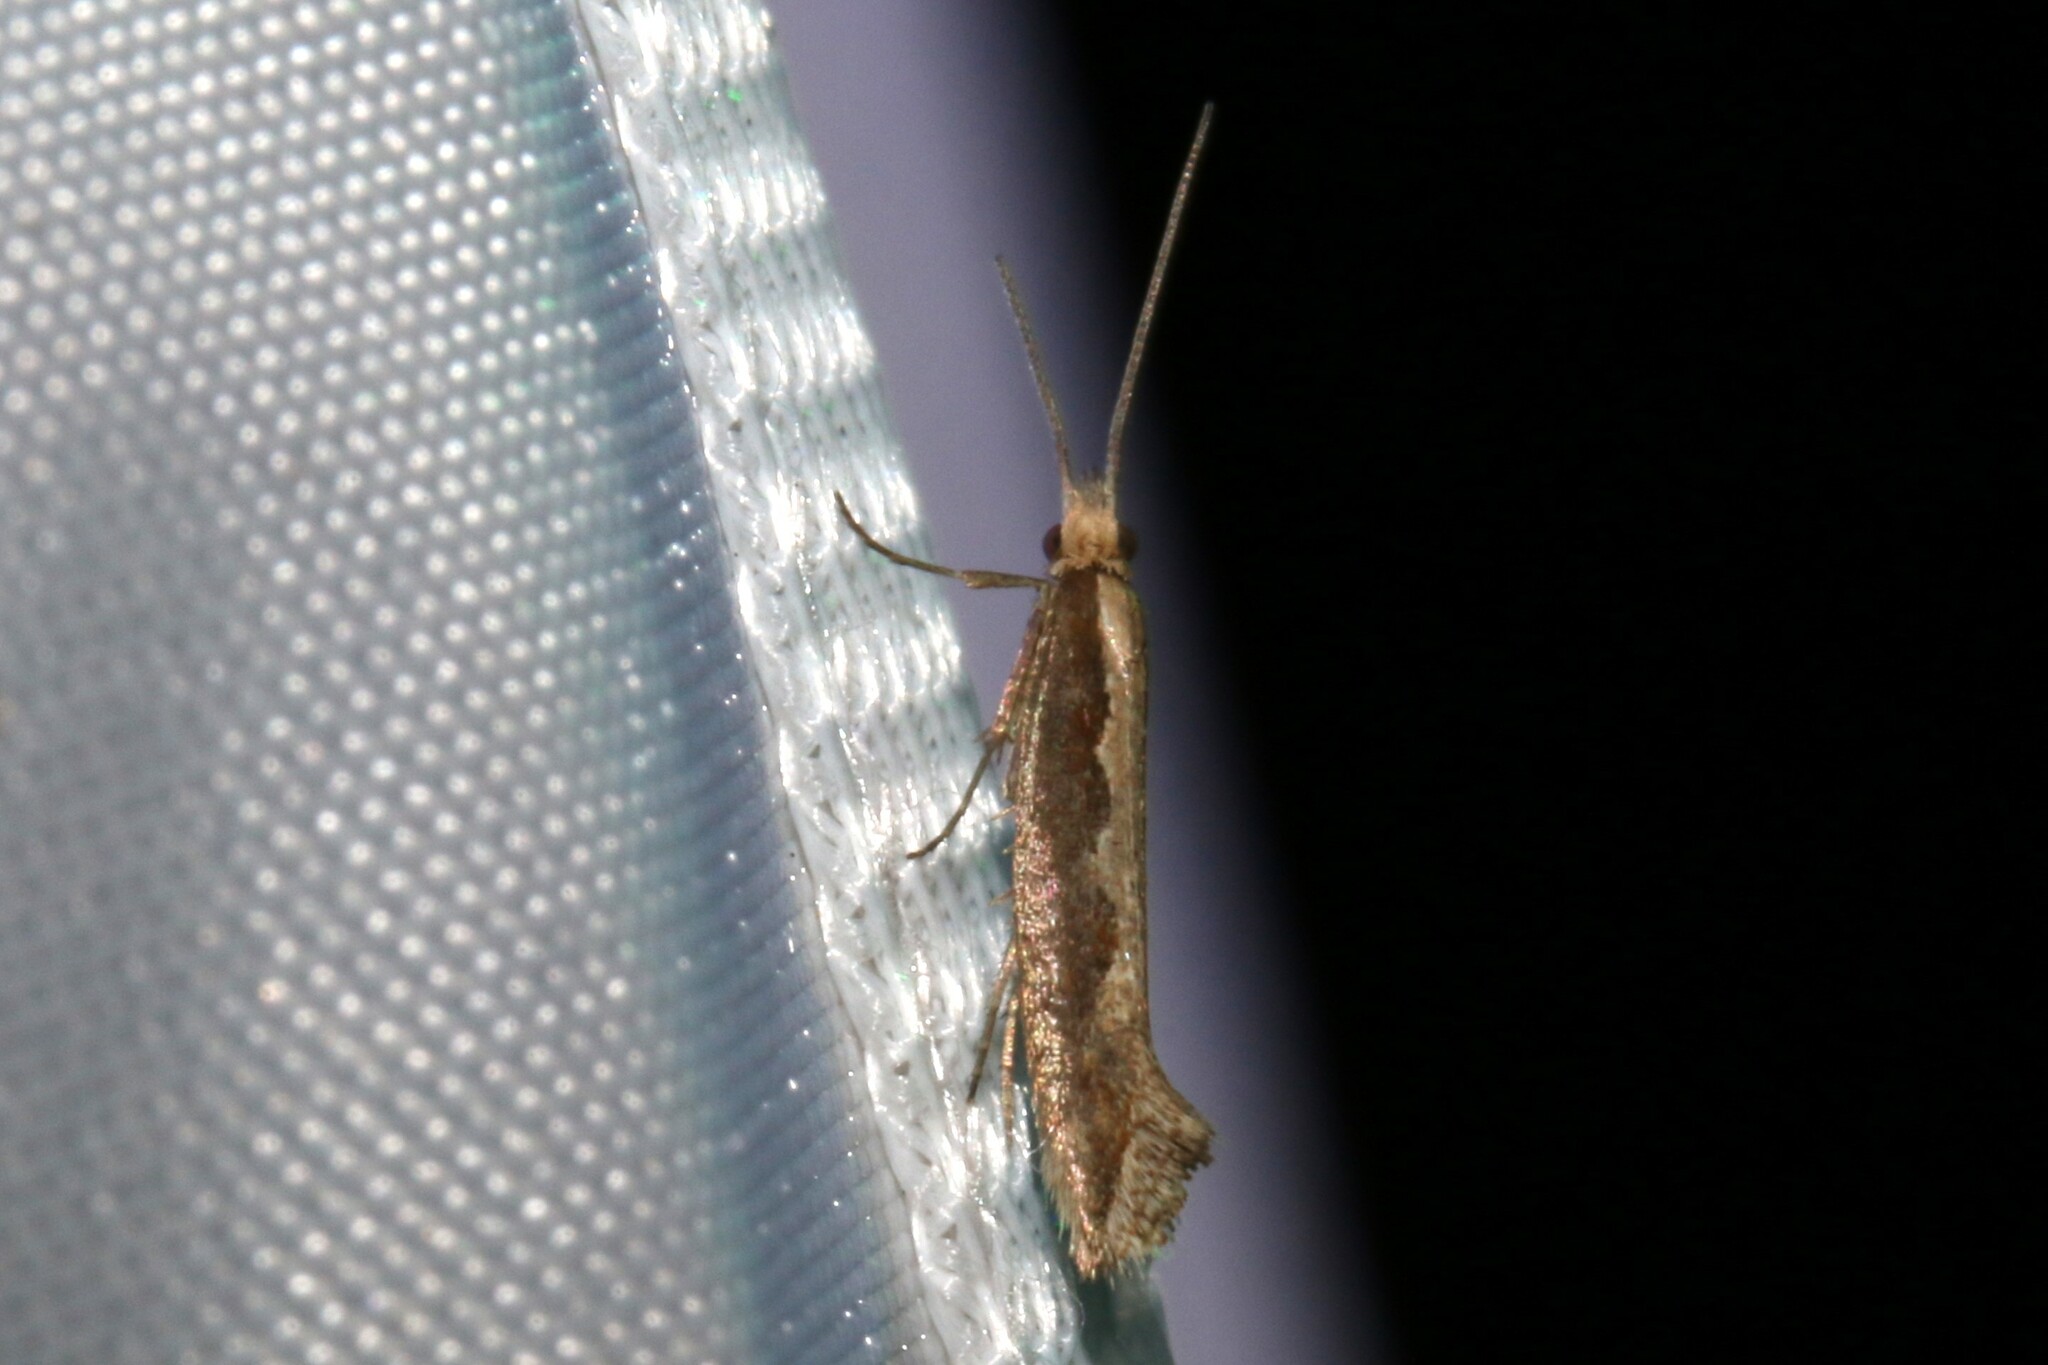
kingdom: Animalia
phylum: Arthropoda
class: Insecta
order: Lepidoptera
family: Plutellidae
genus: Plutella
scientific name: Plutella xylostella
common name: Diamond-back moth
